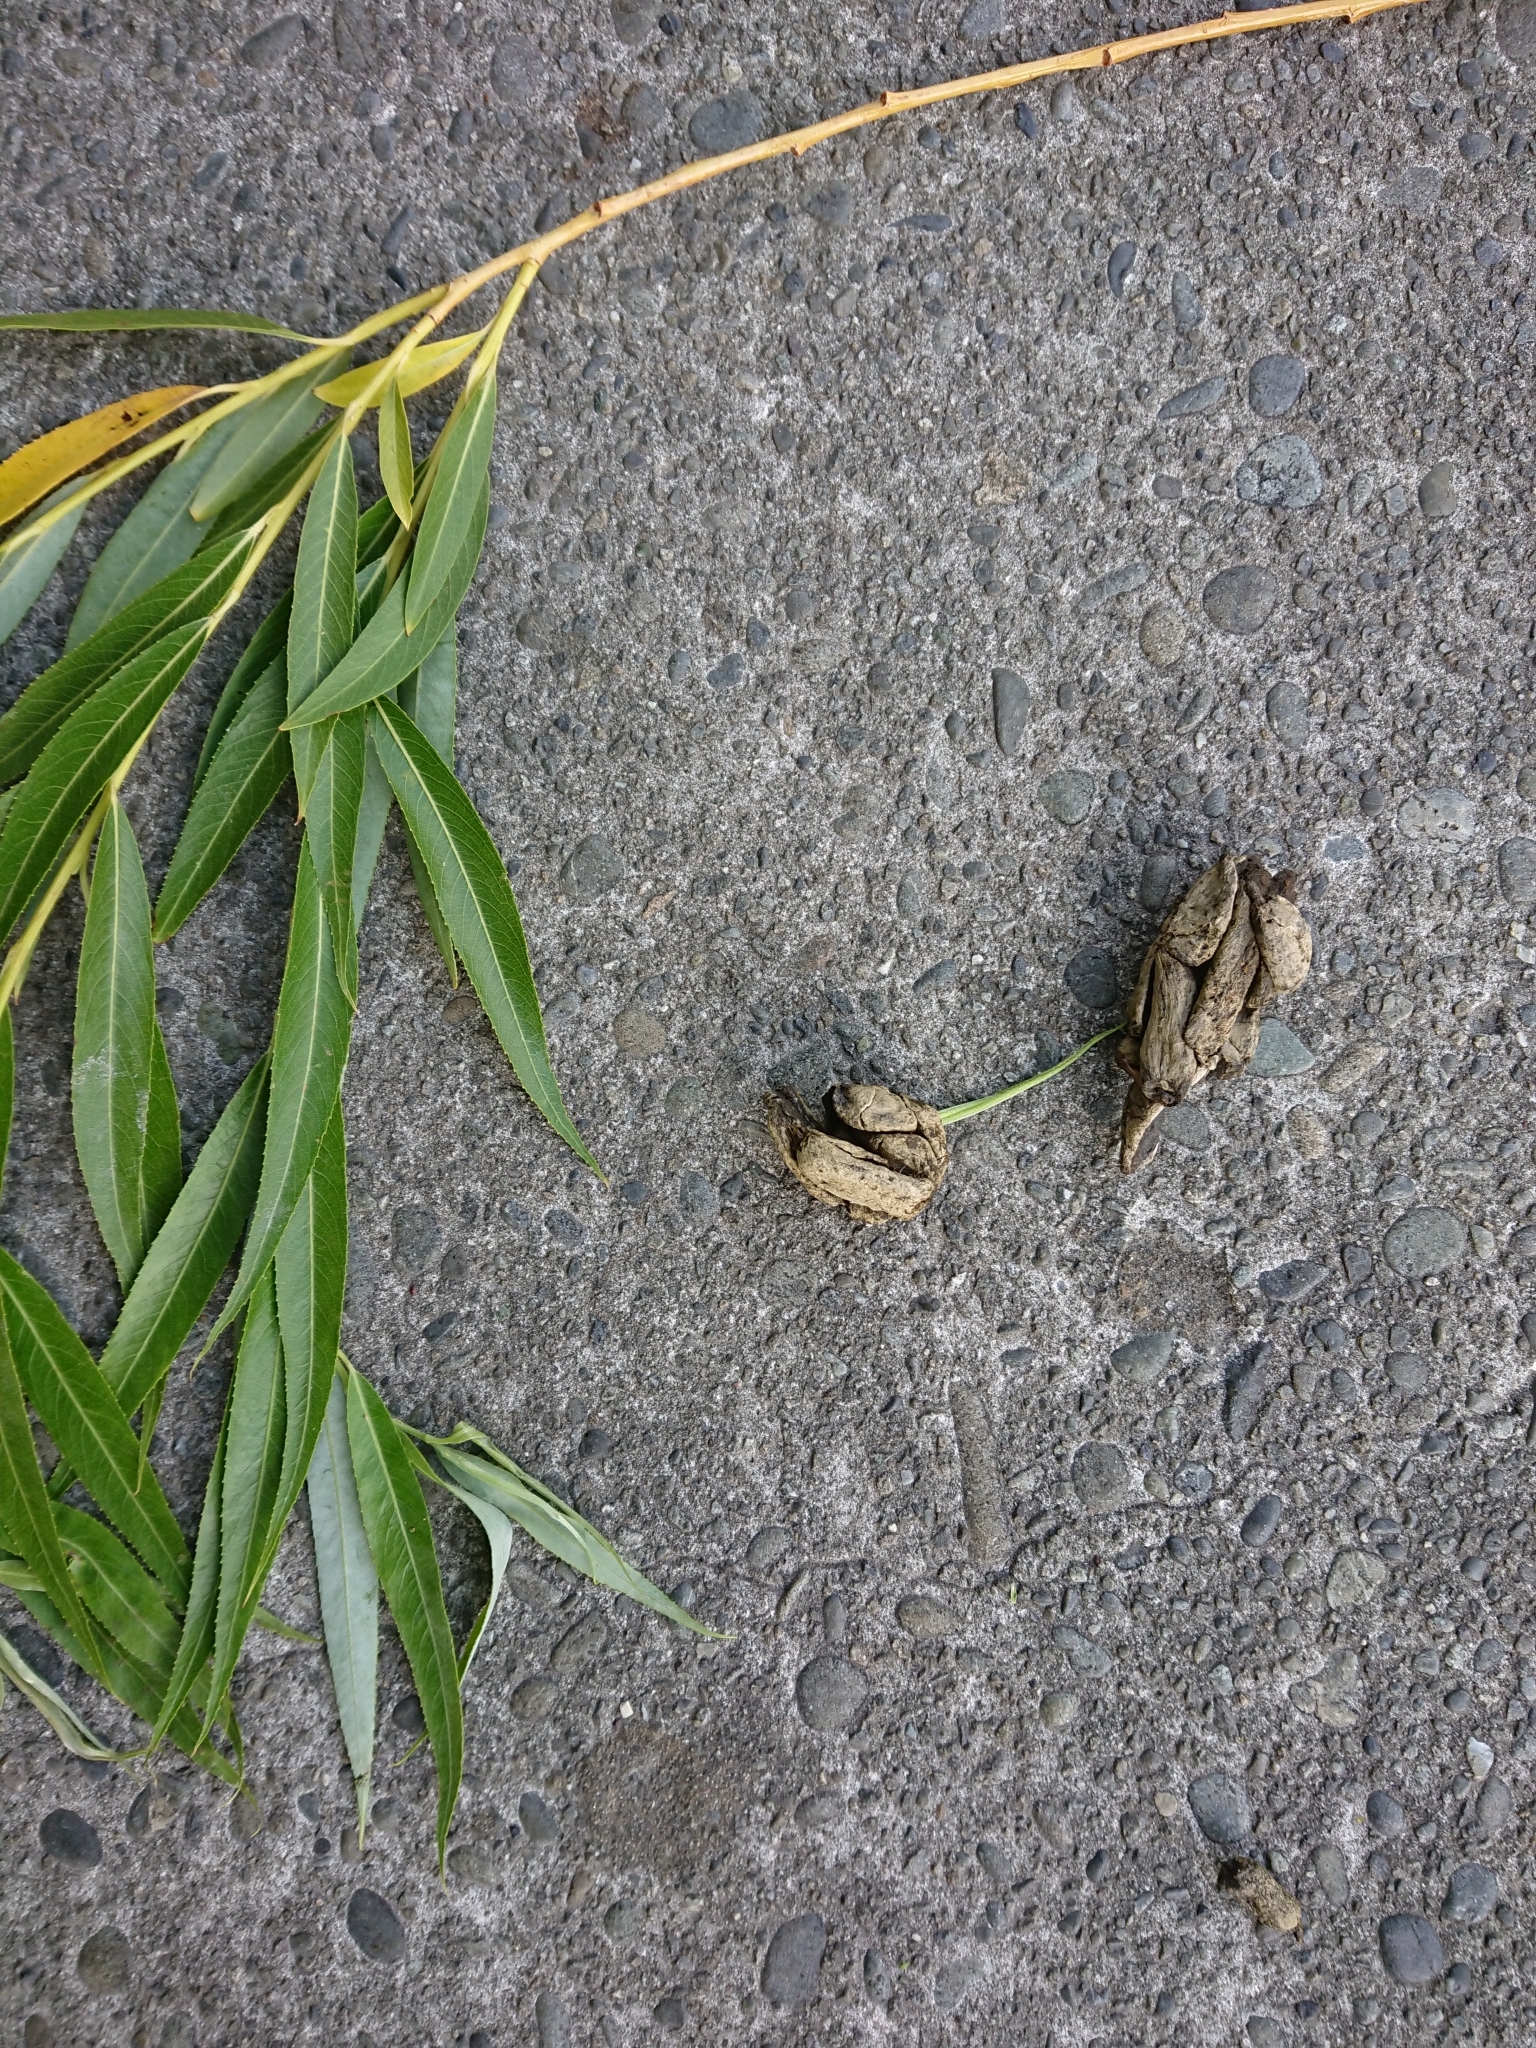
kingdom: Animalia
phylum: Chordata
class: Mammalia
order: Diprotodontia
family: Phalangeridae
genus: Trichosurus
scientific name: Trichosurus vulpecula
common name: Common brushtail
